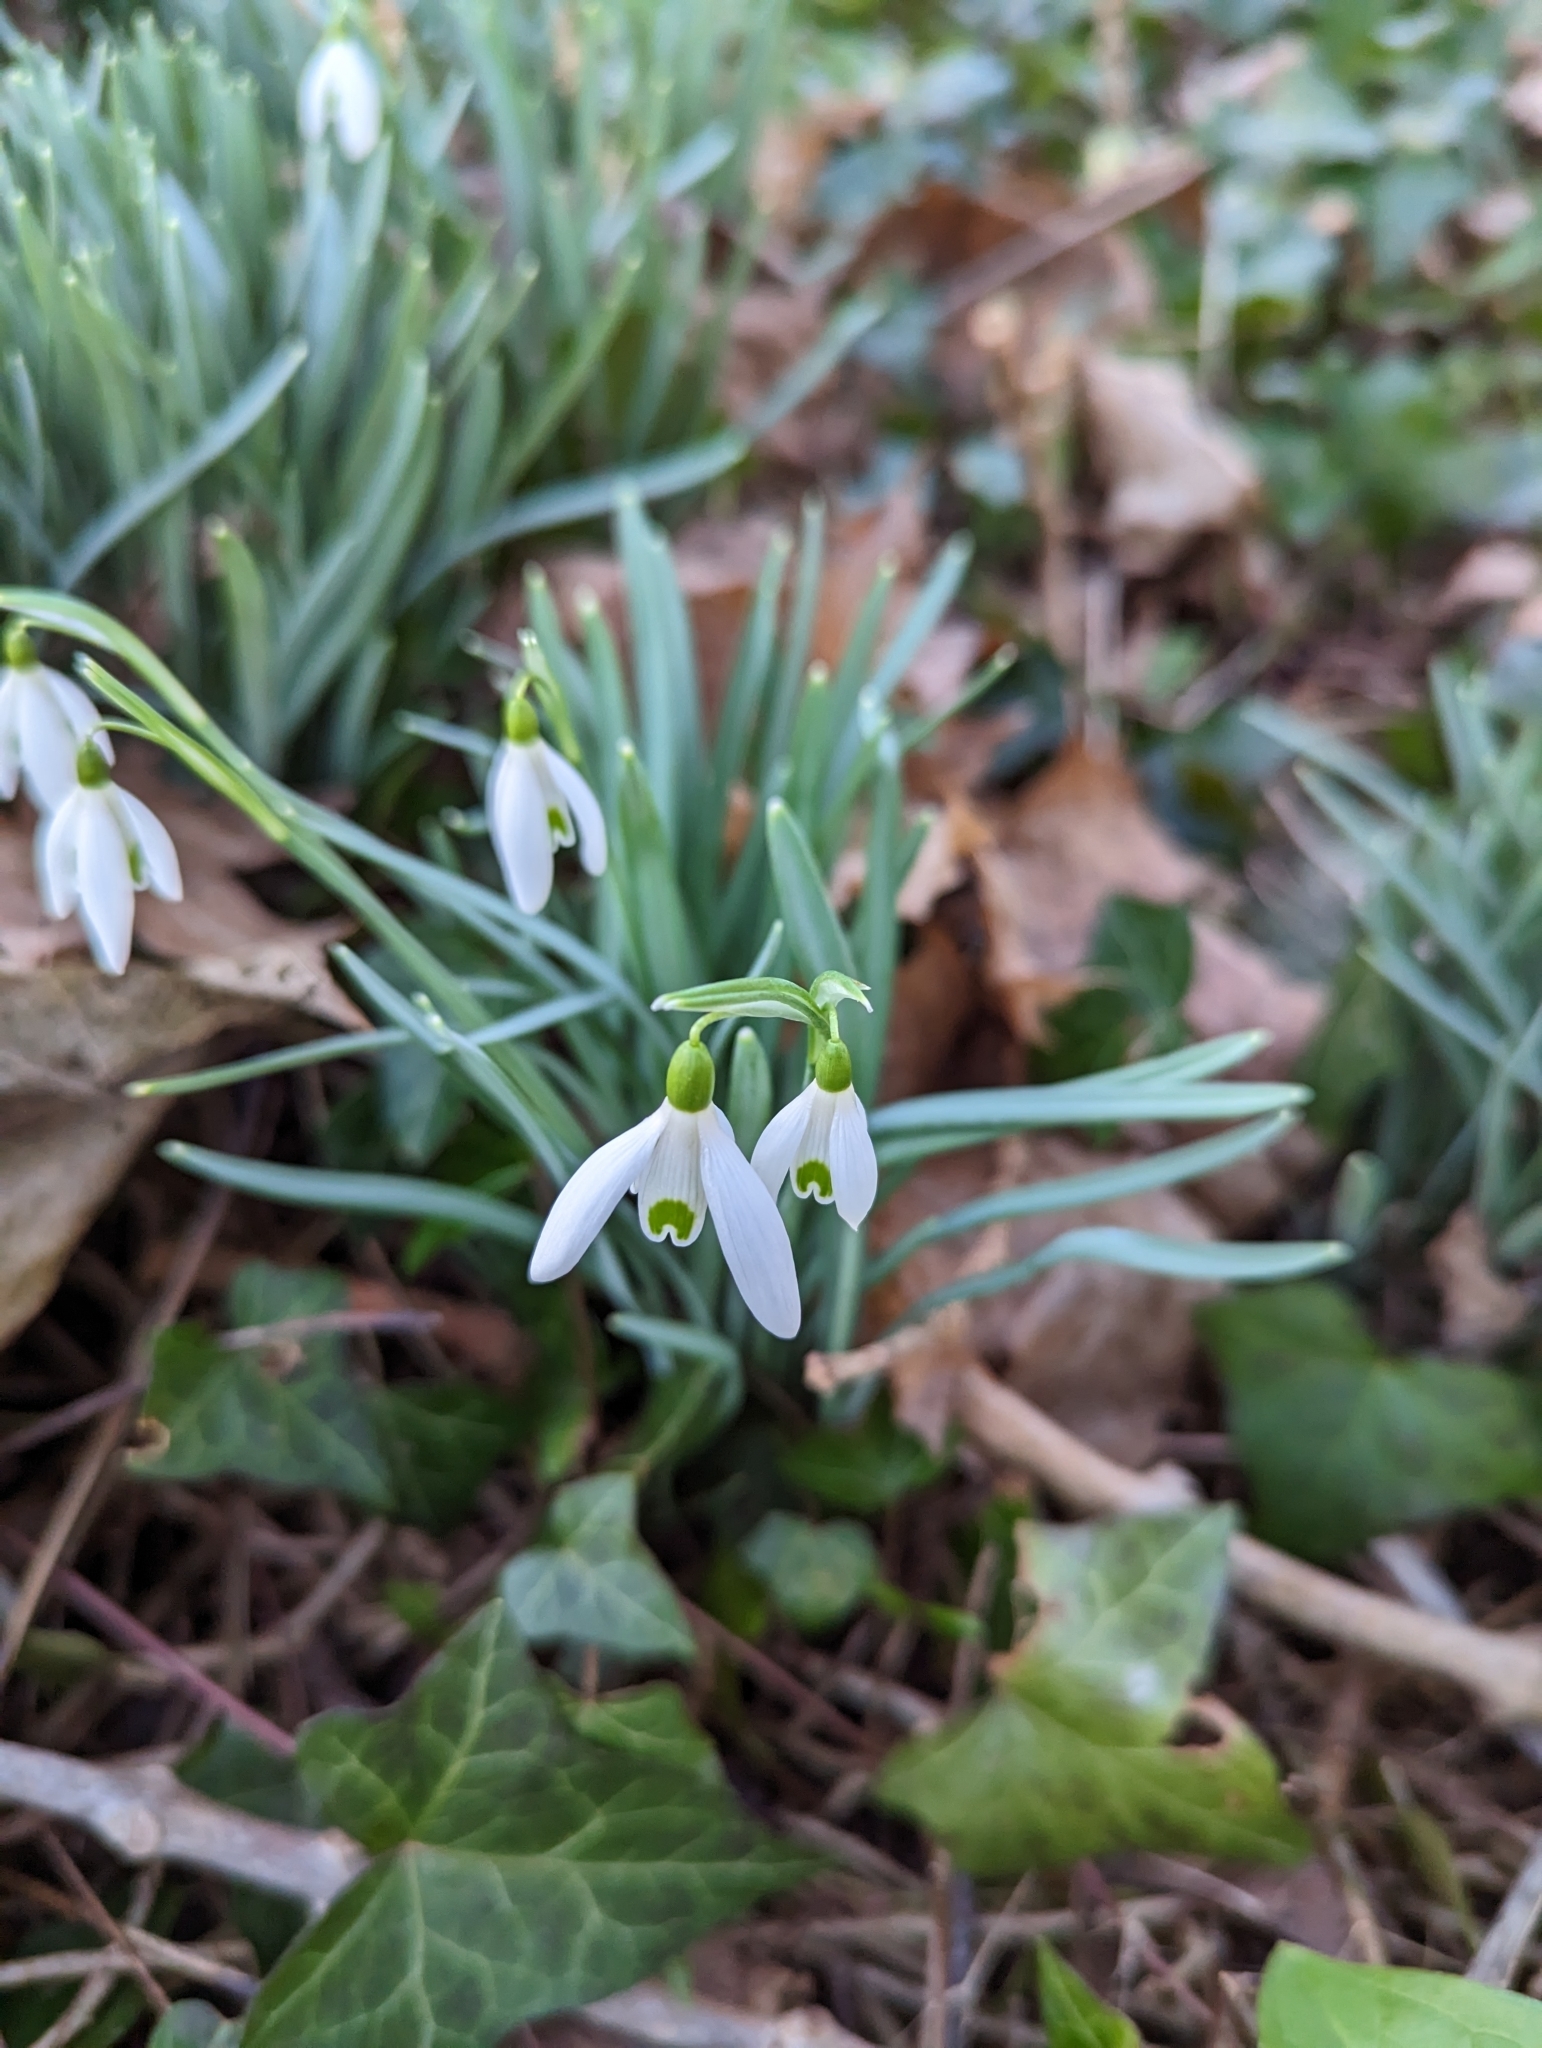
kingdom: Plantae
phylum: Tracheophyta
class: Liliopsida
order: Asparagales
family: Amaryllidaceae
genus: Galanthus
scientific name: Galanthus nivalis
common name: Snowdrop
